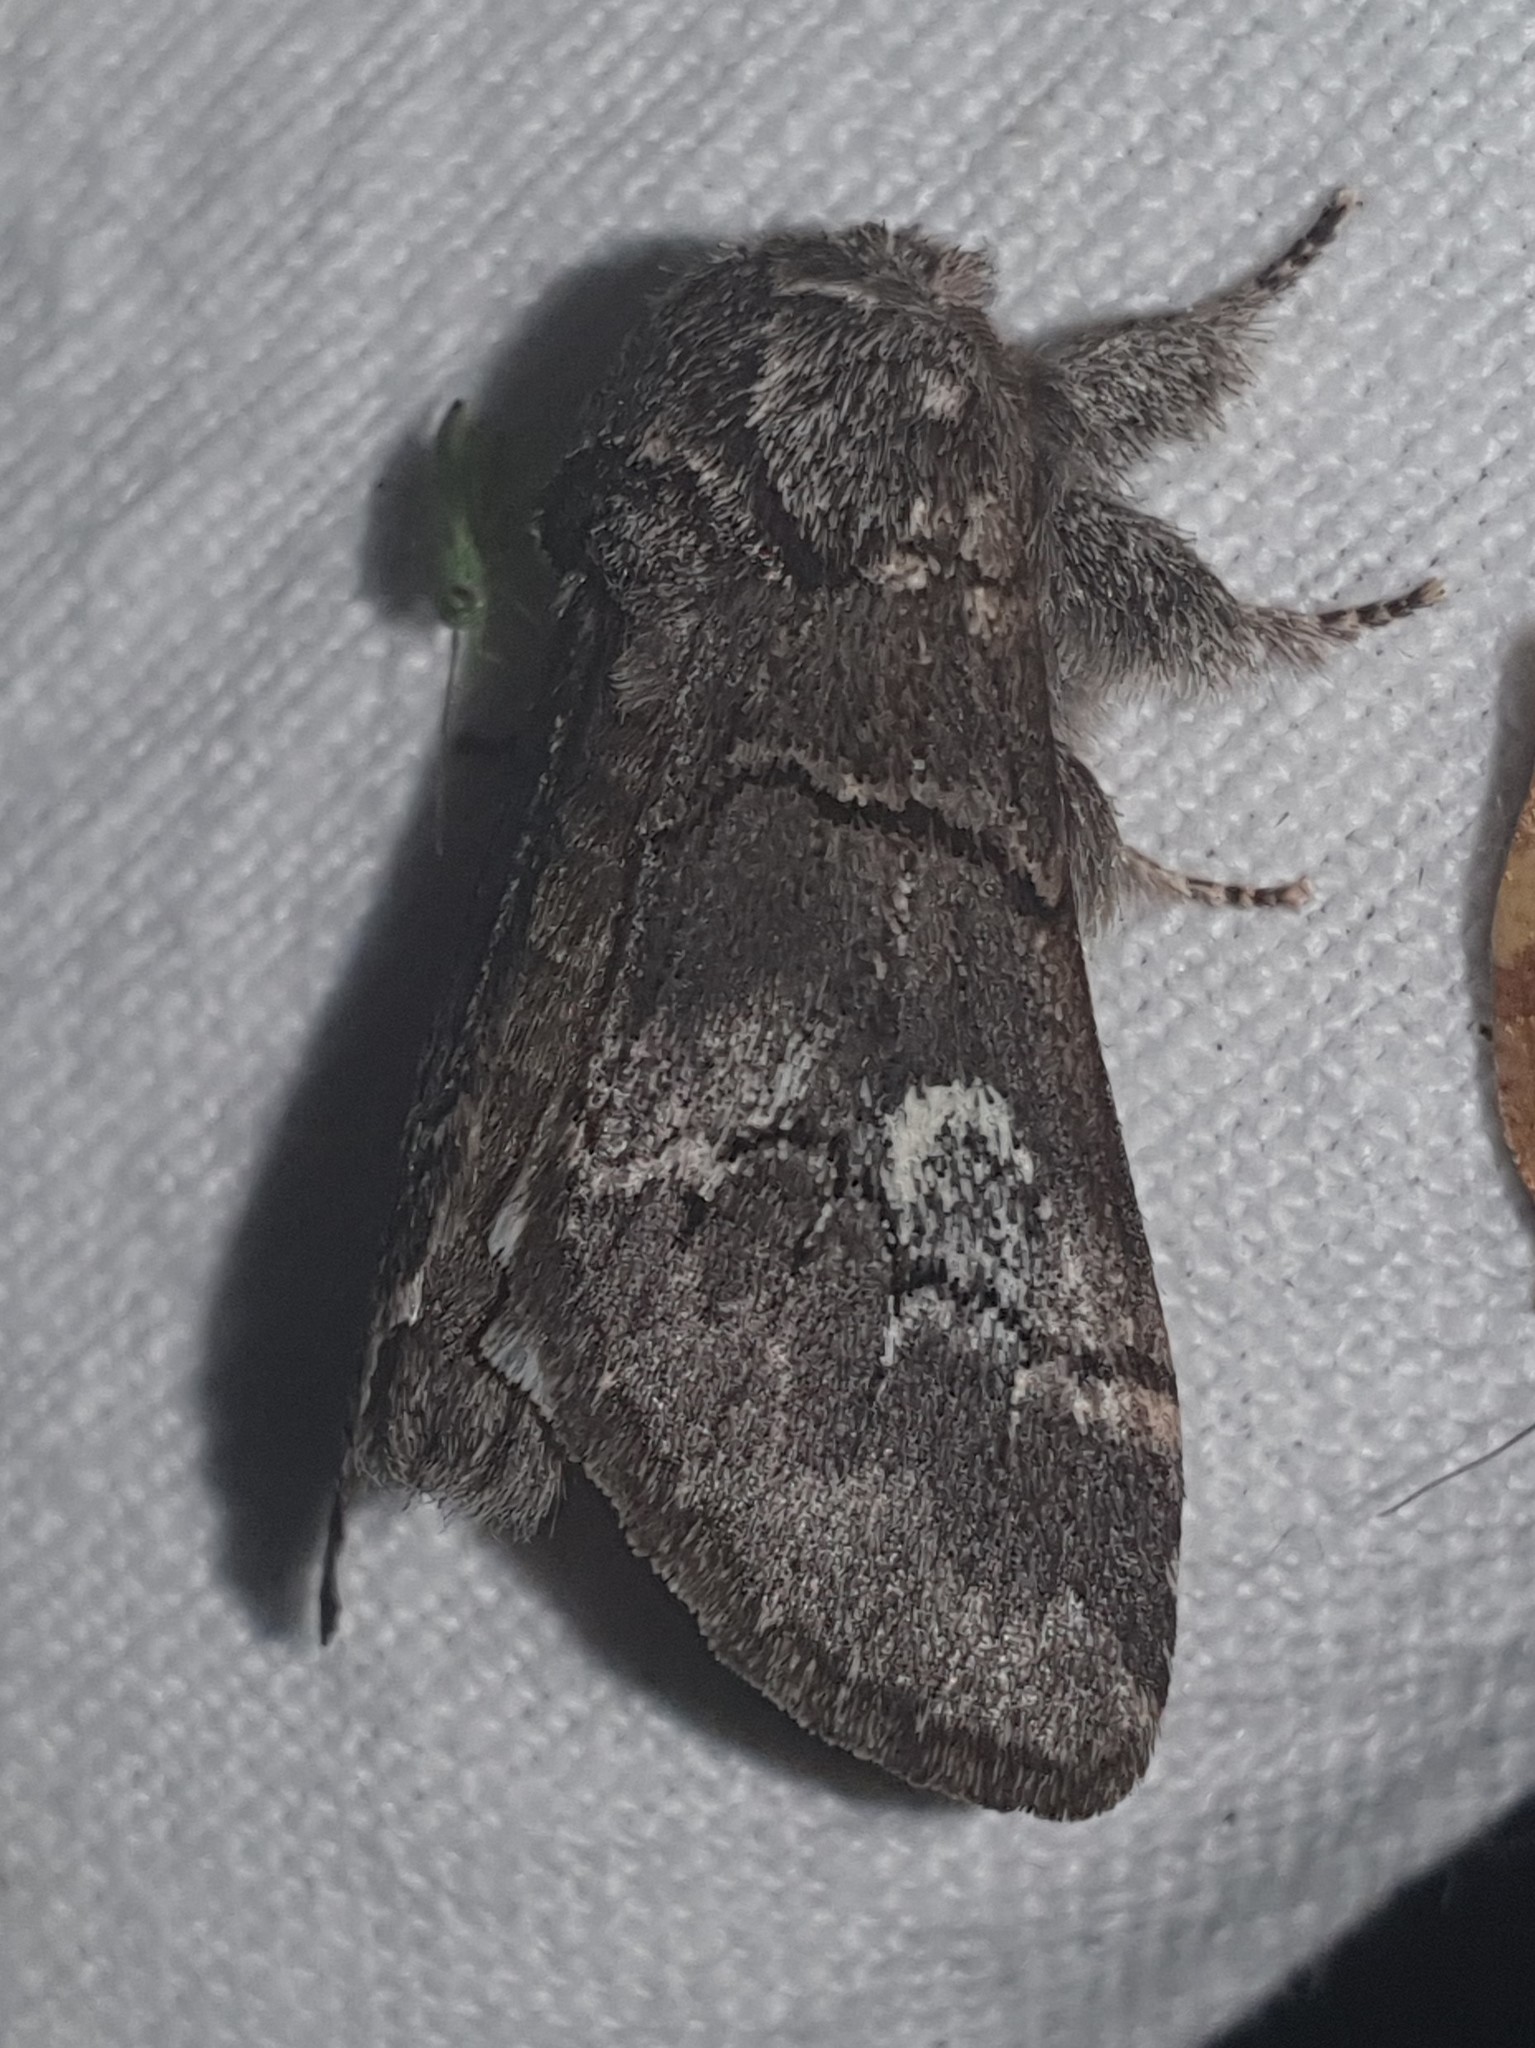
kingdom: Animalia
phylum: Arthropoda
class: Insecta
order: Lepidoptera
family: Notodontidae
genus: Drymonia
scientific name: Drymonia querna
